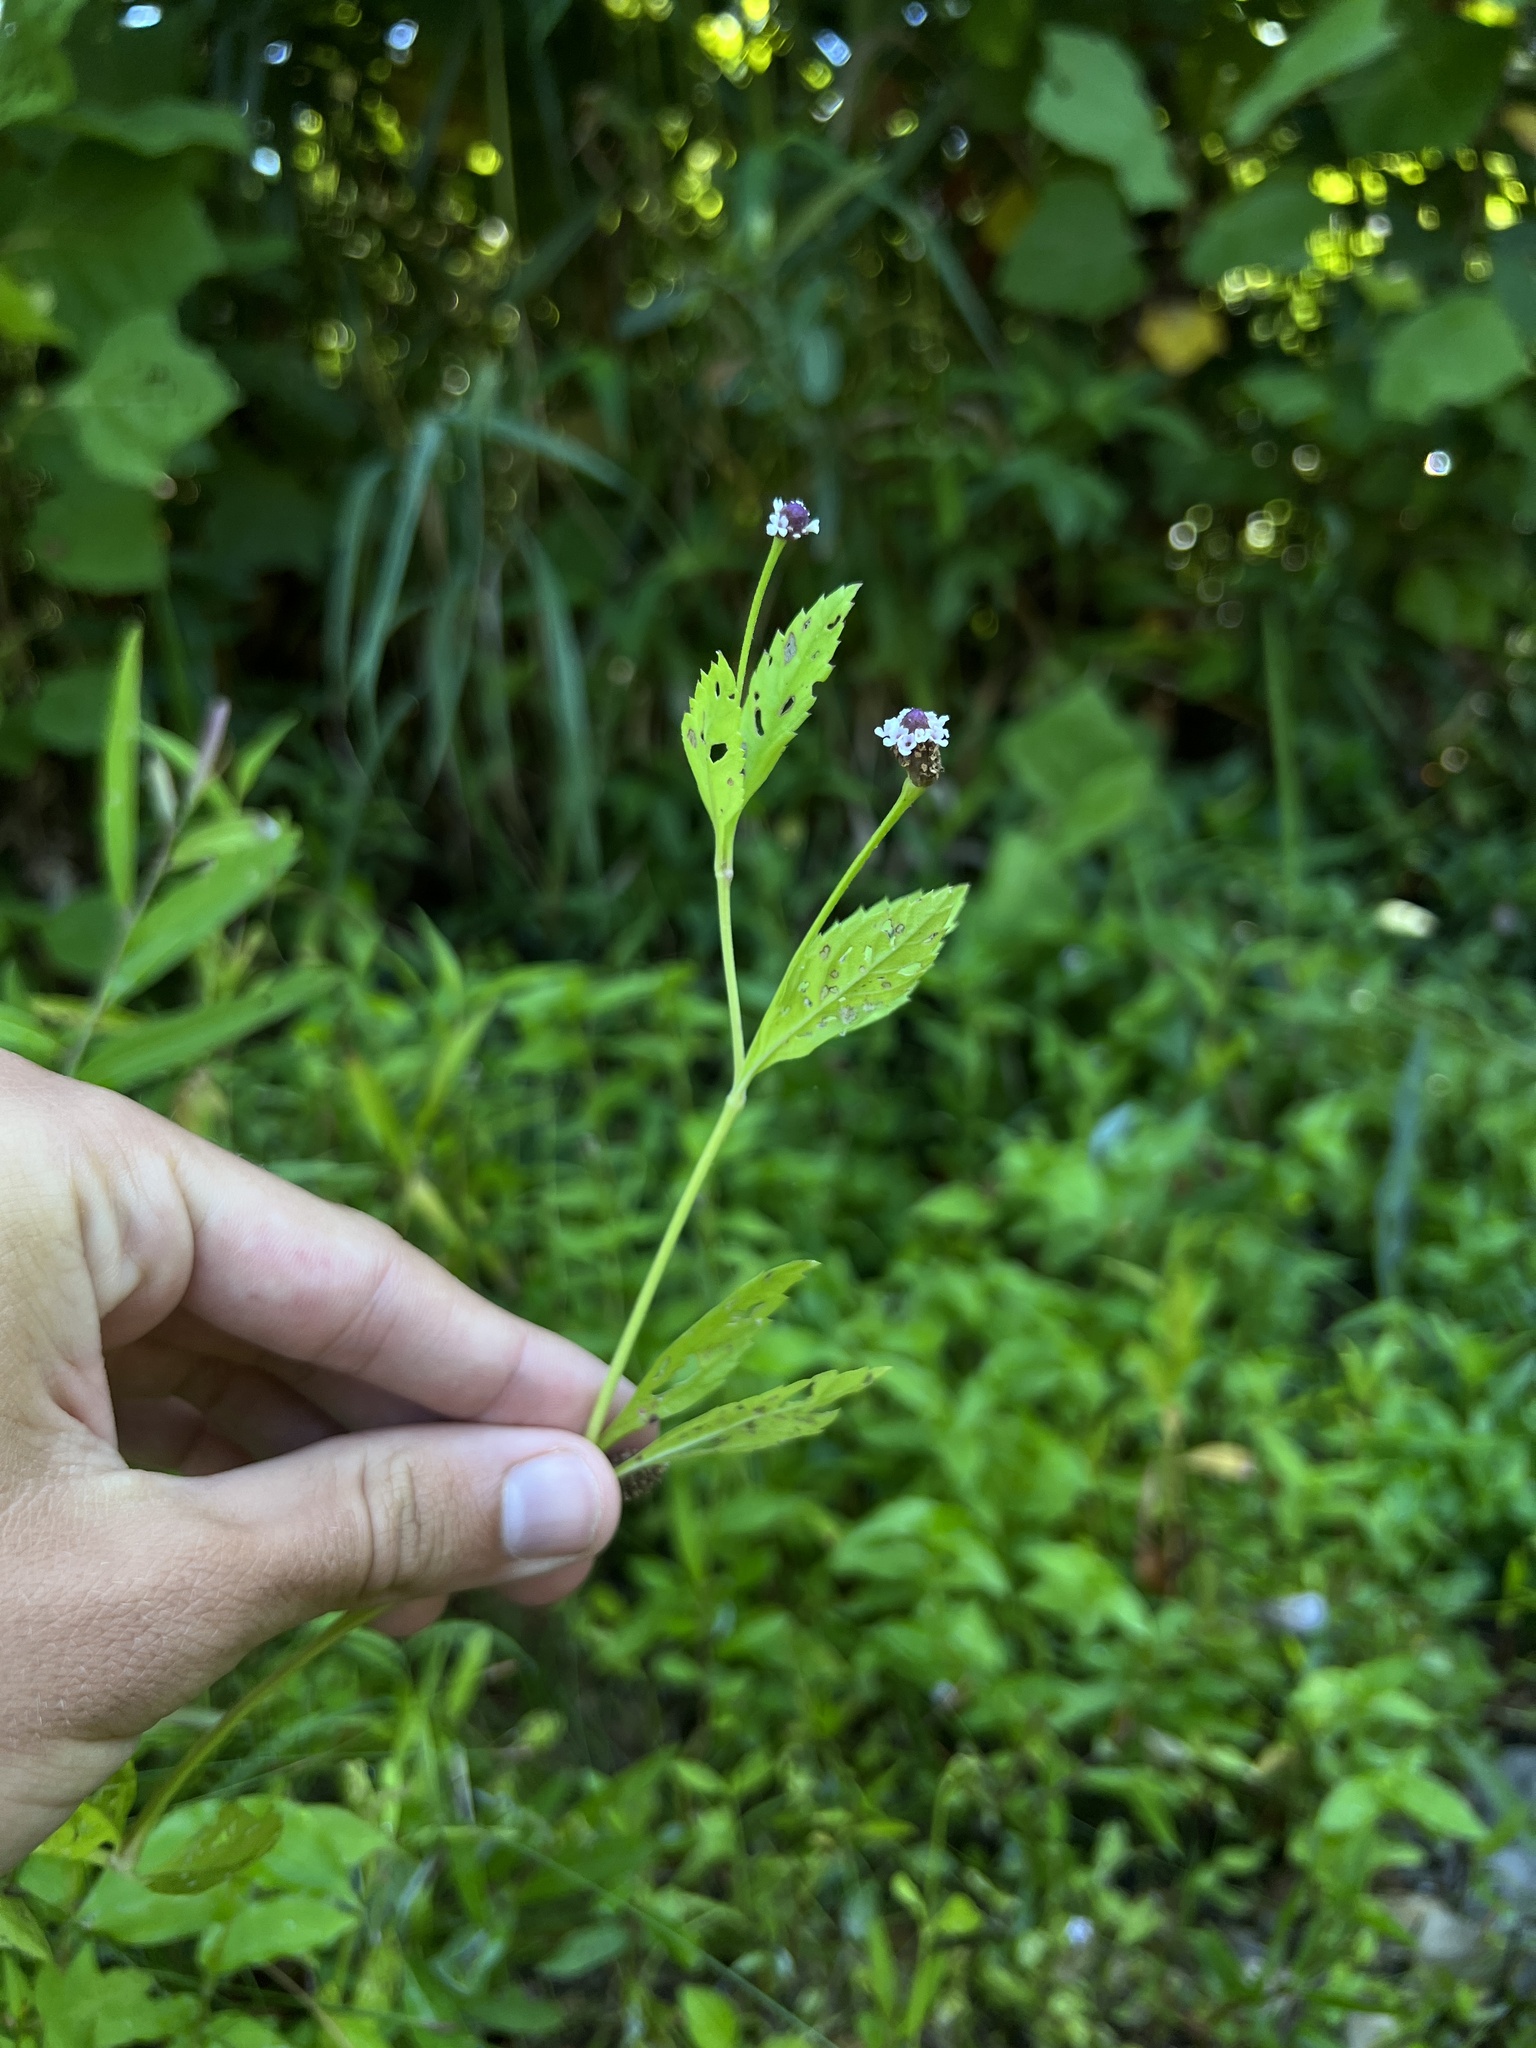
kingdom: Plantae
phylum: Tracheophyta
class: Magnoliopsida
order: Lamiales
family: Verbenaceae
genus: Phyla
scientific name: Phyla lanceolata
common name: Northern fogfruit
